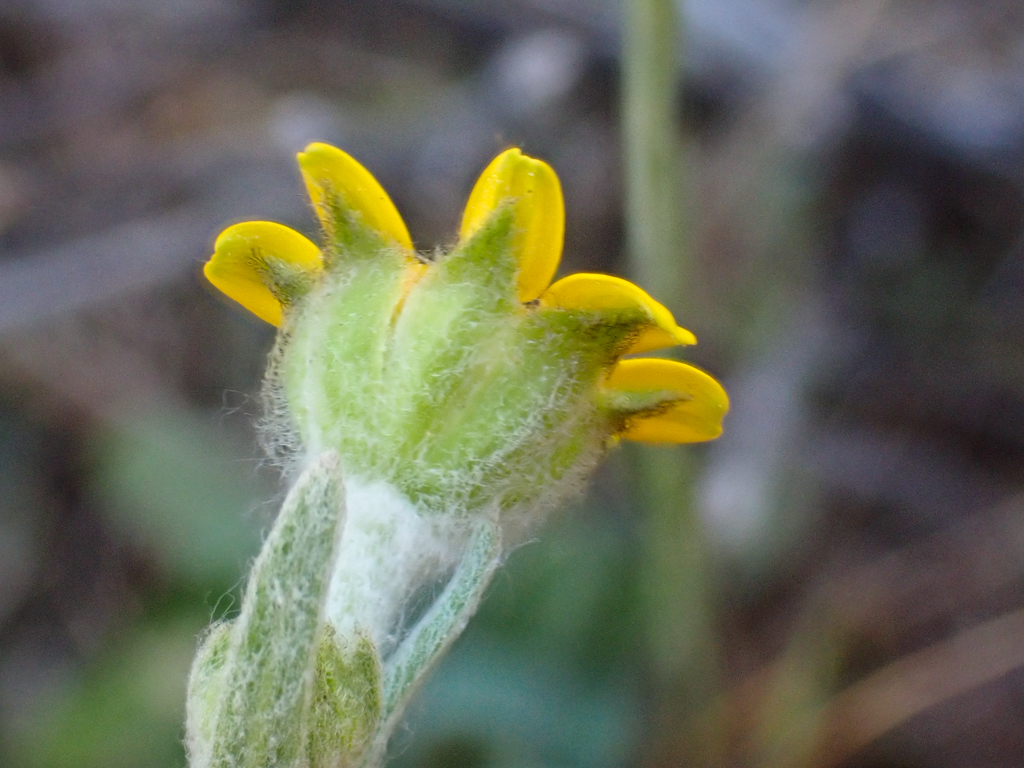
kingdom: Plantae
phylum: Tracheophyta
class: Magnoliopsida
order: Asterales
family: Asteraceae
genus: Monolopia
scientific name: Monolopia gracilens
